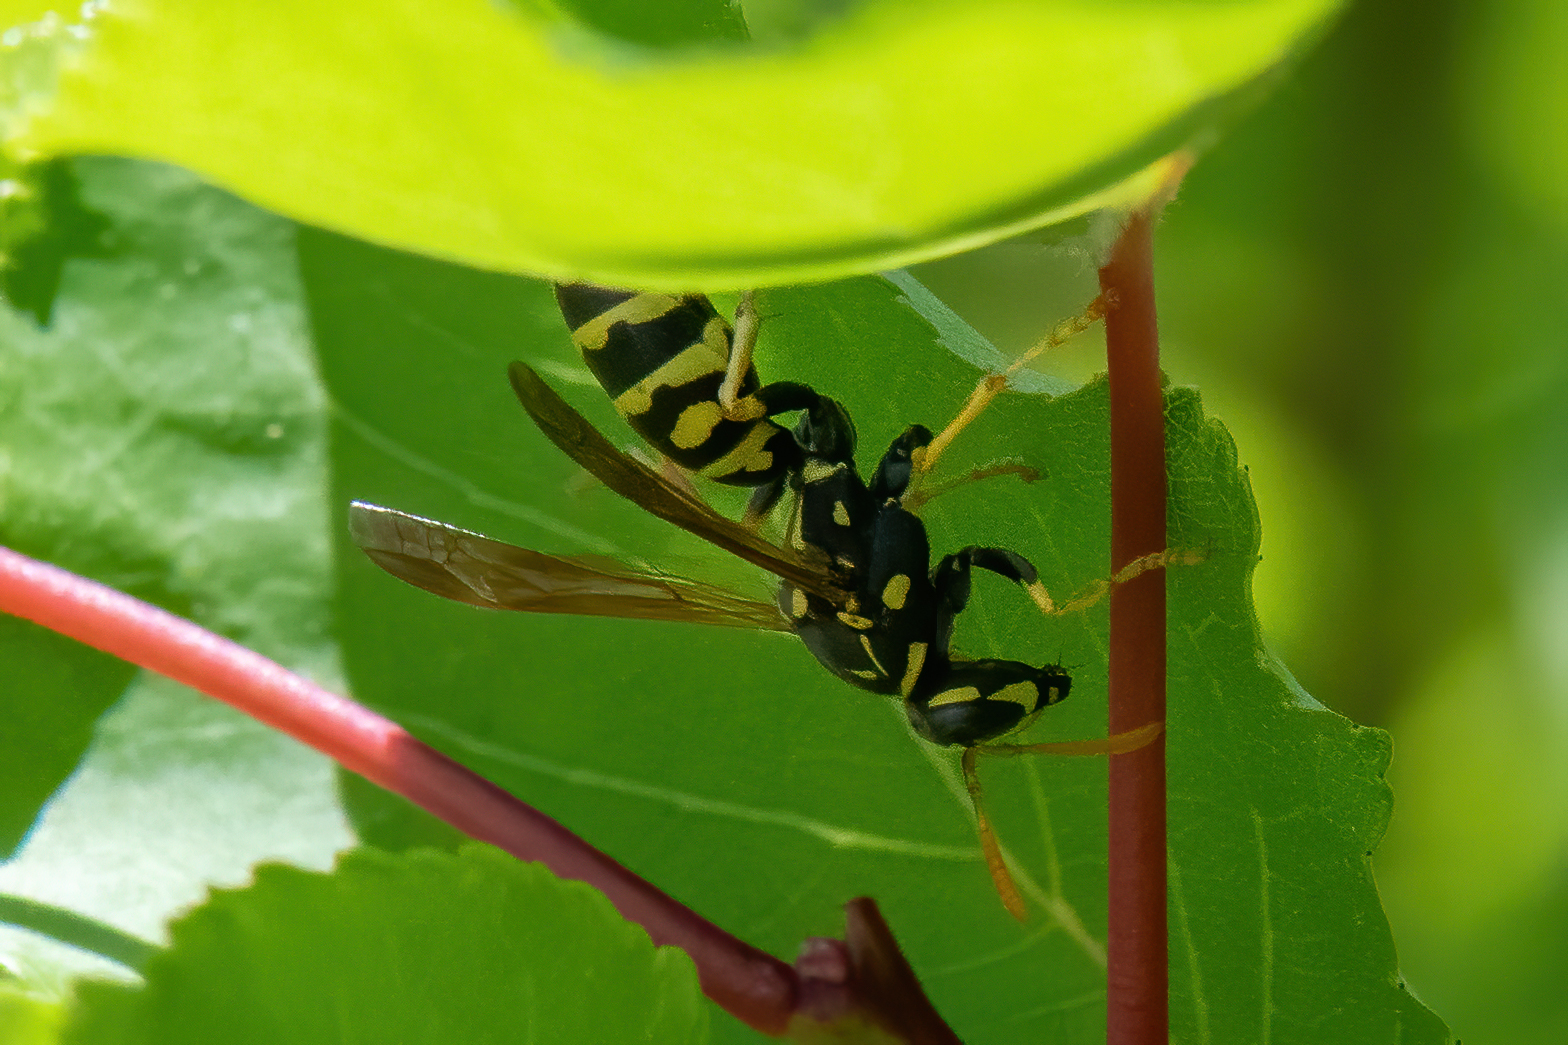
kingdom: Animalia
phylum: Arthropoda
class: Insecta
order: Hymenoptera
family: Eumenidae
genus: Polistes
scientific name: Polistes dominula
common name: Paper wasp
